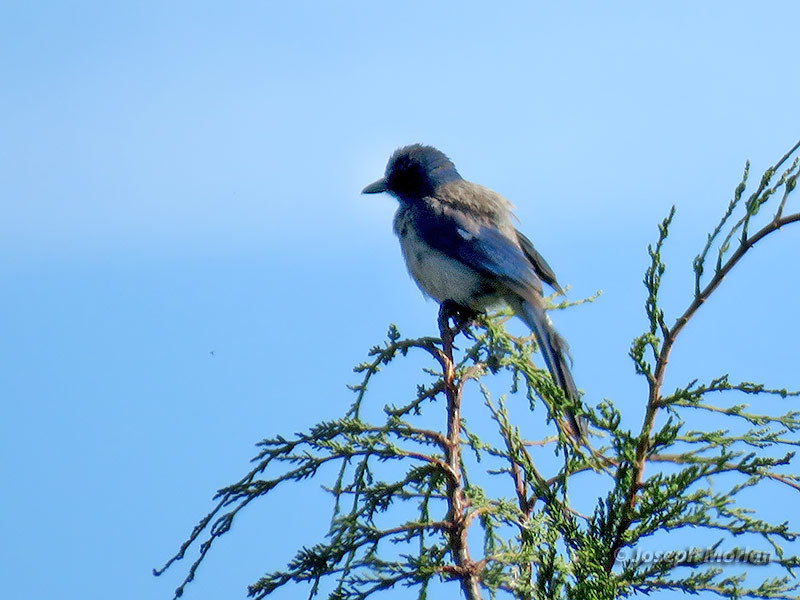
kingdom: Animalia
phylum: Chordata
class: Aves
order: Passeriformes
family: Corvidae
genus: Aphelocoma
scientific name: Aphelocoma californica
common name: California scrub-jay
